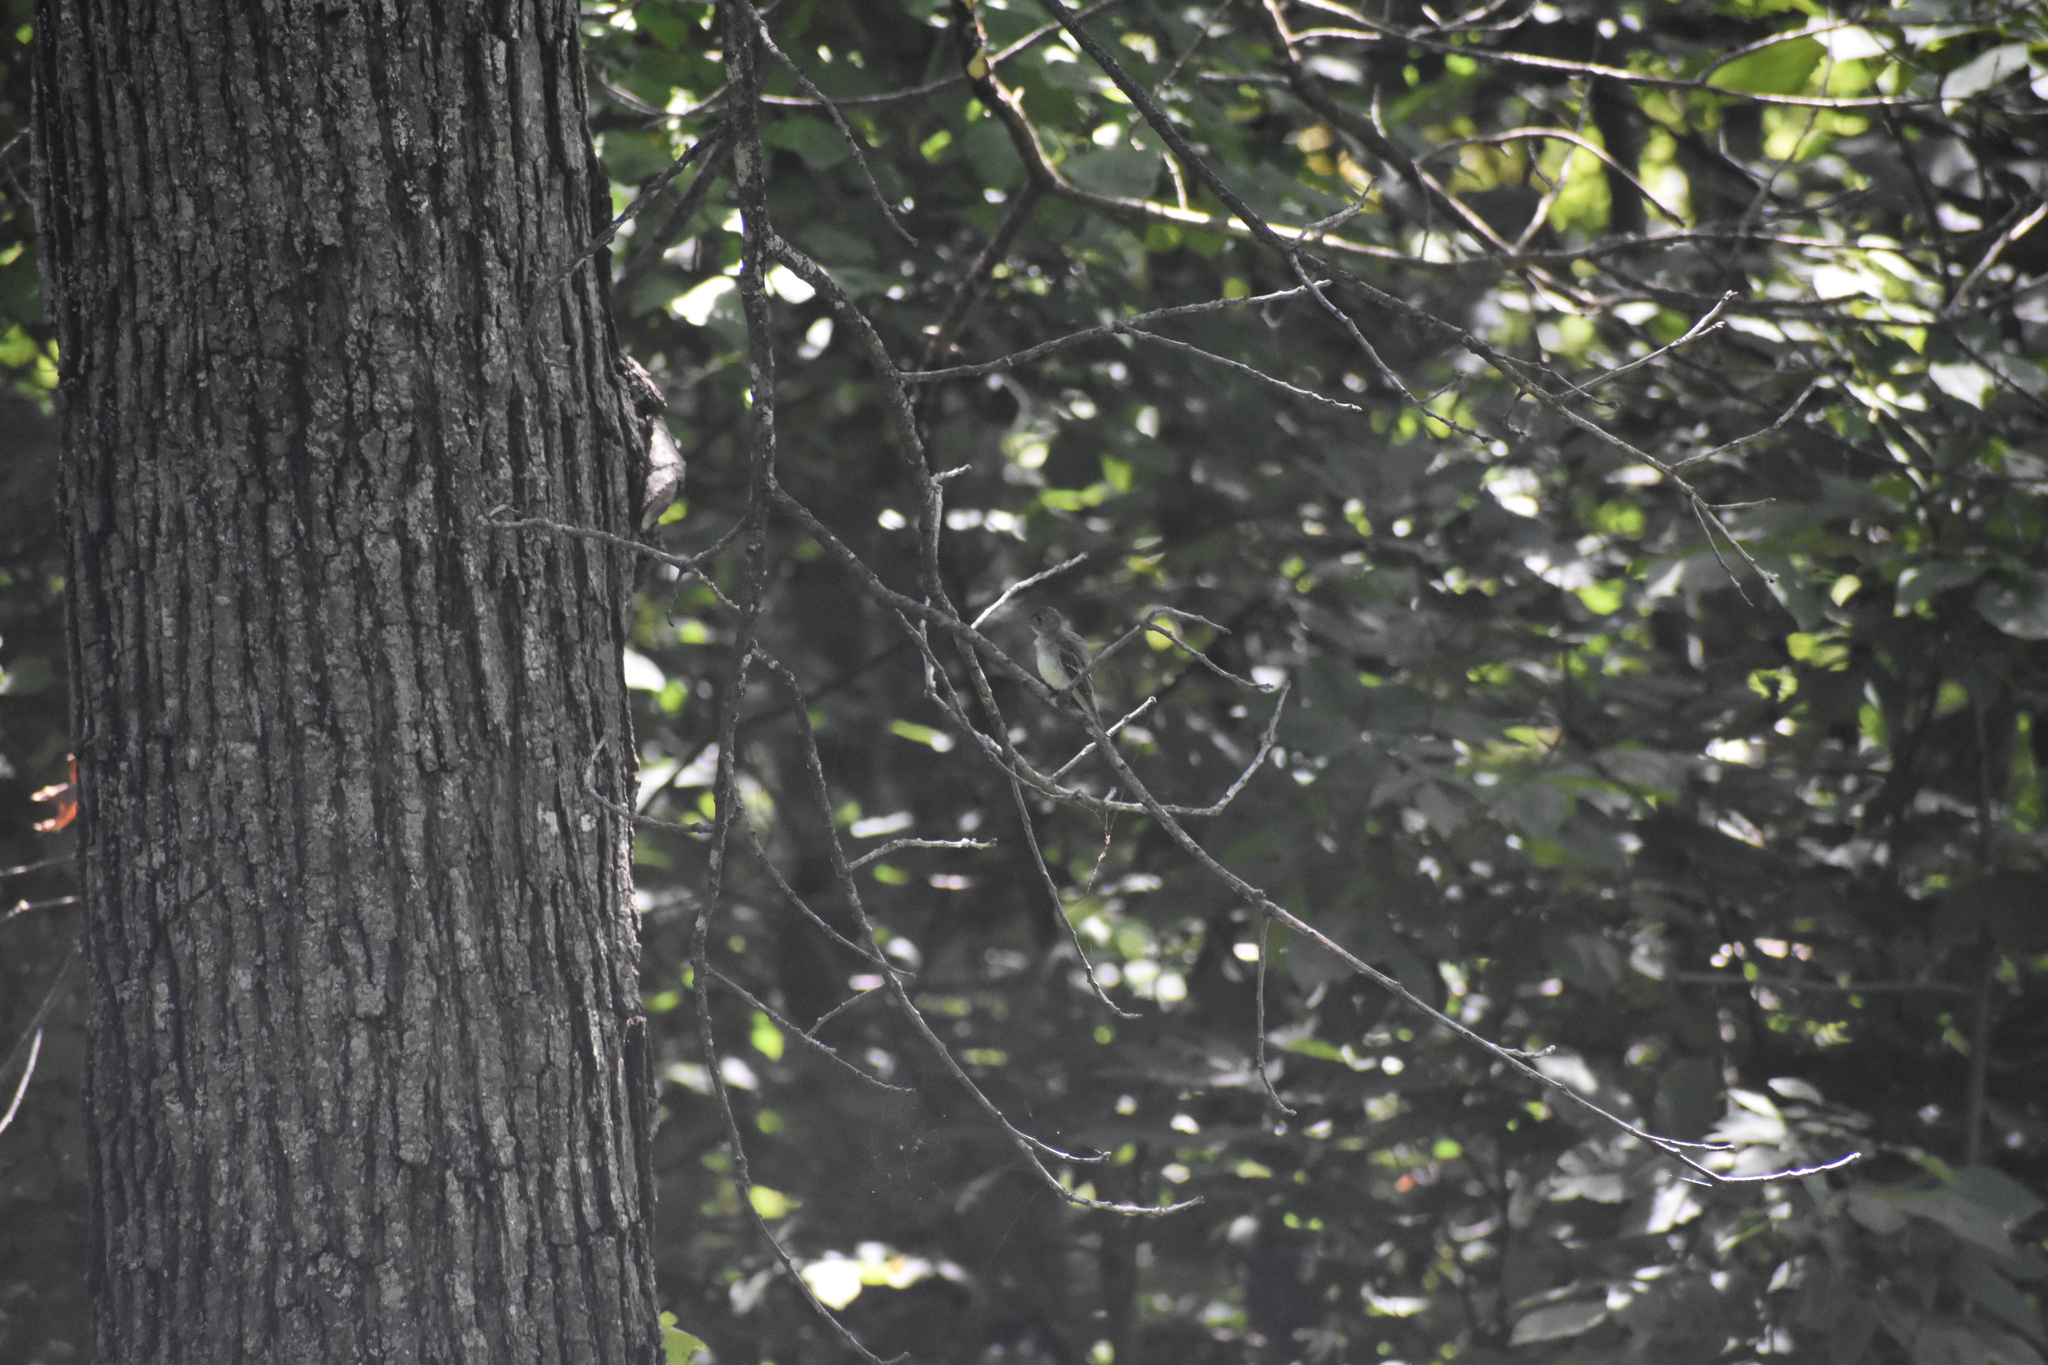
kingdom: Animalia
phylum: Chordata
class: Aves
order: Passeriformes
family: Tyrannidae
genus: Contopus
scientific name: Contopus virens
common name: Eastern wood-pewee
